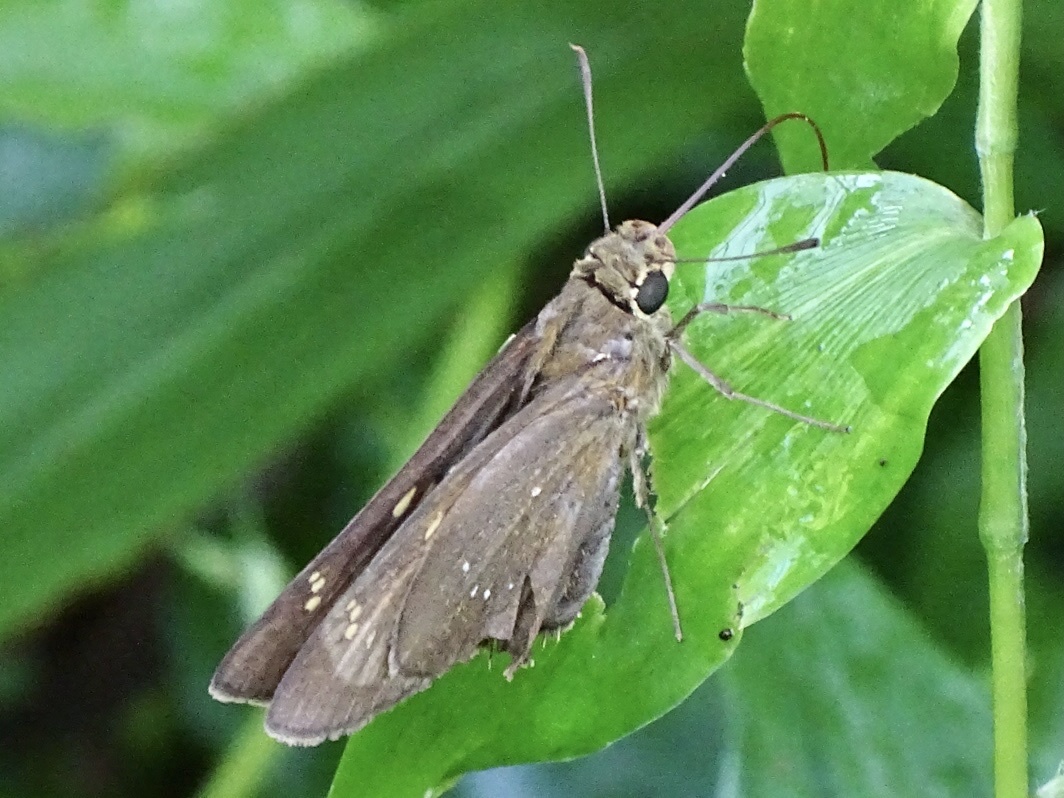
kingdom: Animalia
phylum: Arthropoda
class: Insecta
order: Lepidoptera
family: Hesperiidae
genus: Pelopidas
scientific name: Pelopidas conjuncta
